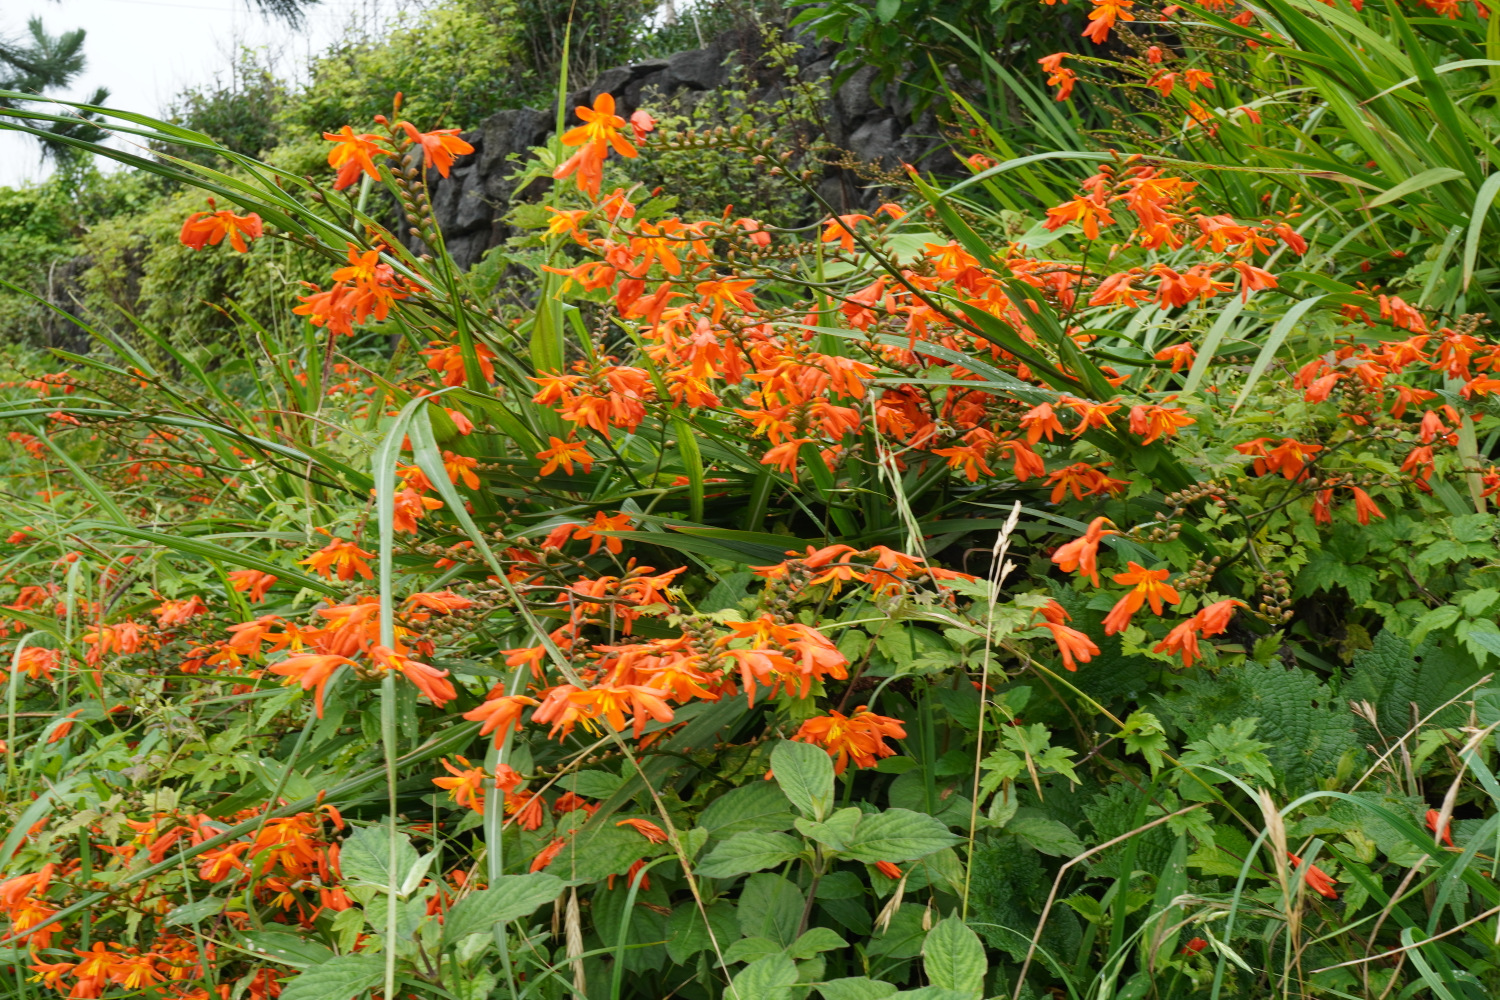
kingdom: Plantae
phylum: Tracheophyta
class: Liliopsida
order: Asparagales
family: Iridaceae
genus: Crocosmia
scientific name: Crocosmia crocosmiiflora
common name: Montbretia
